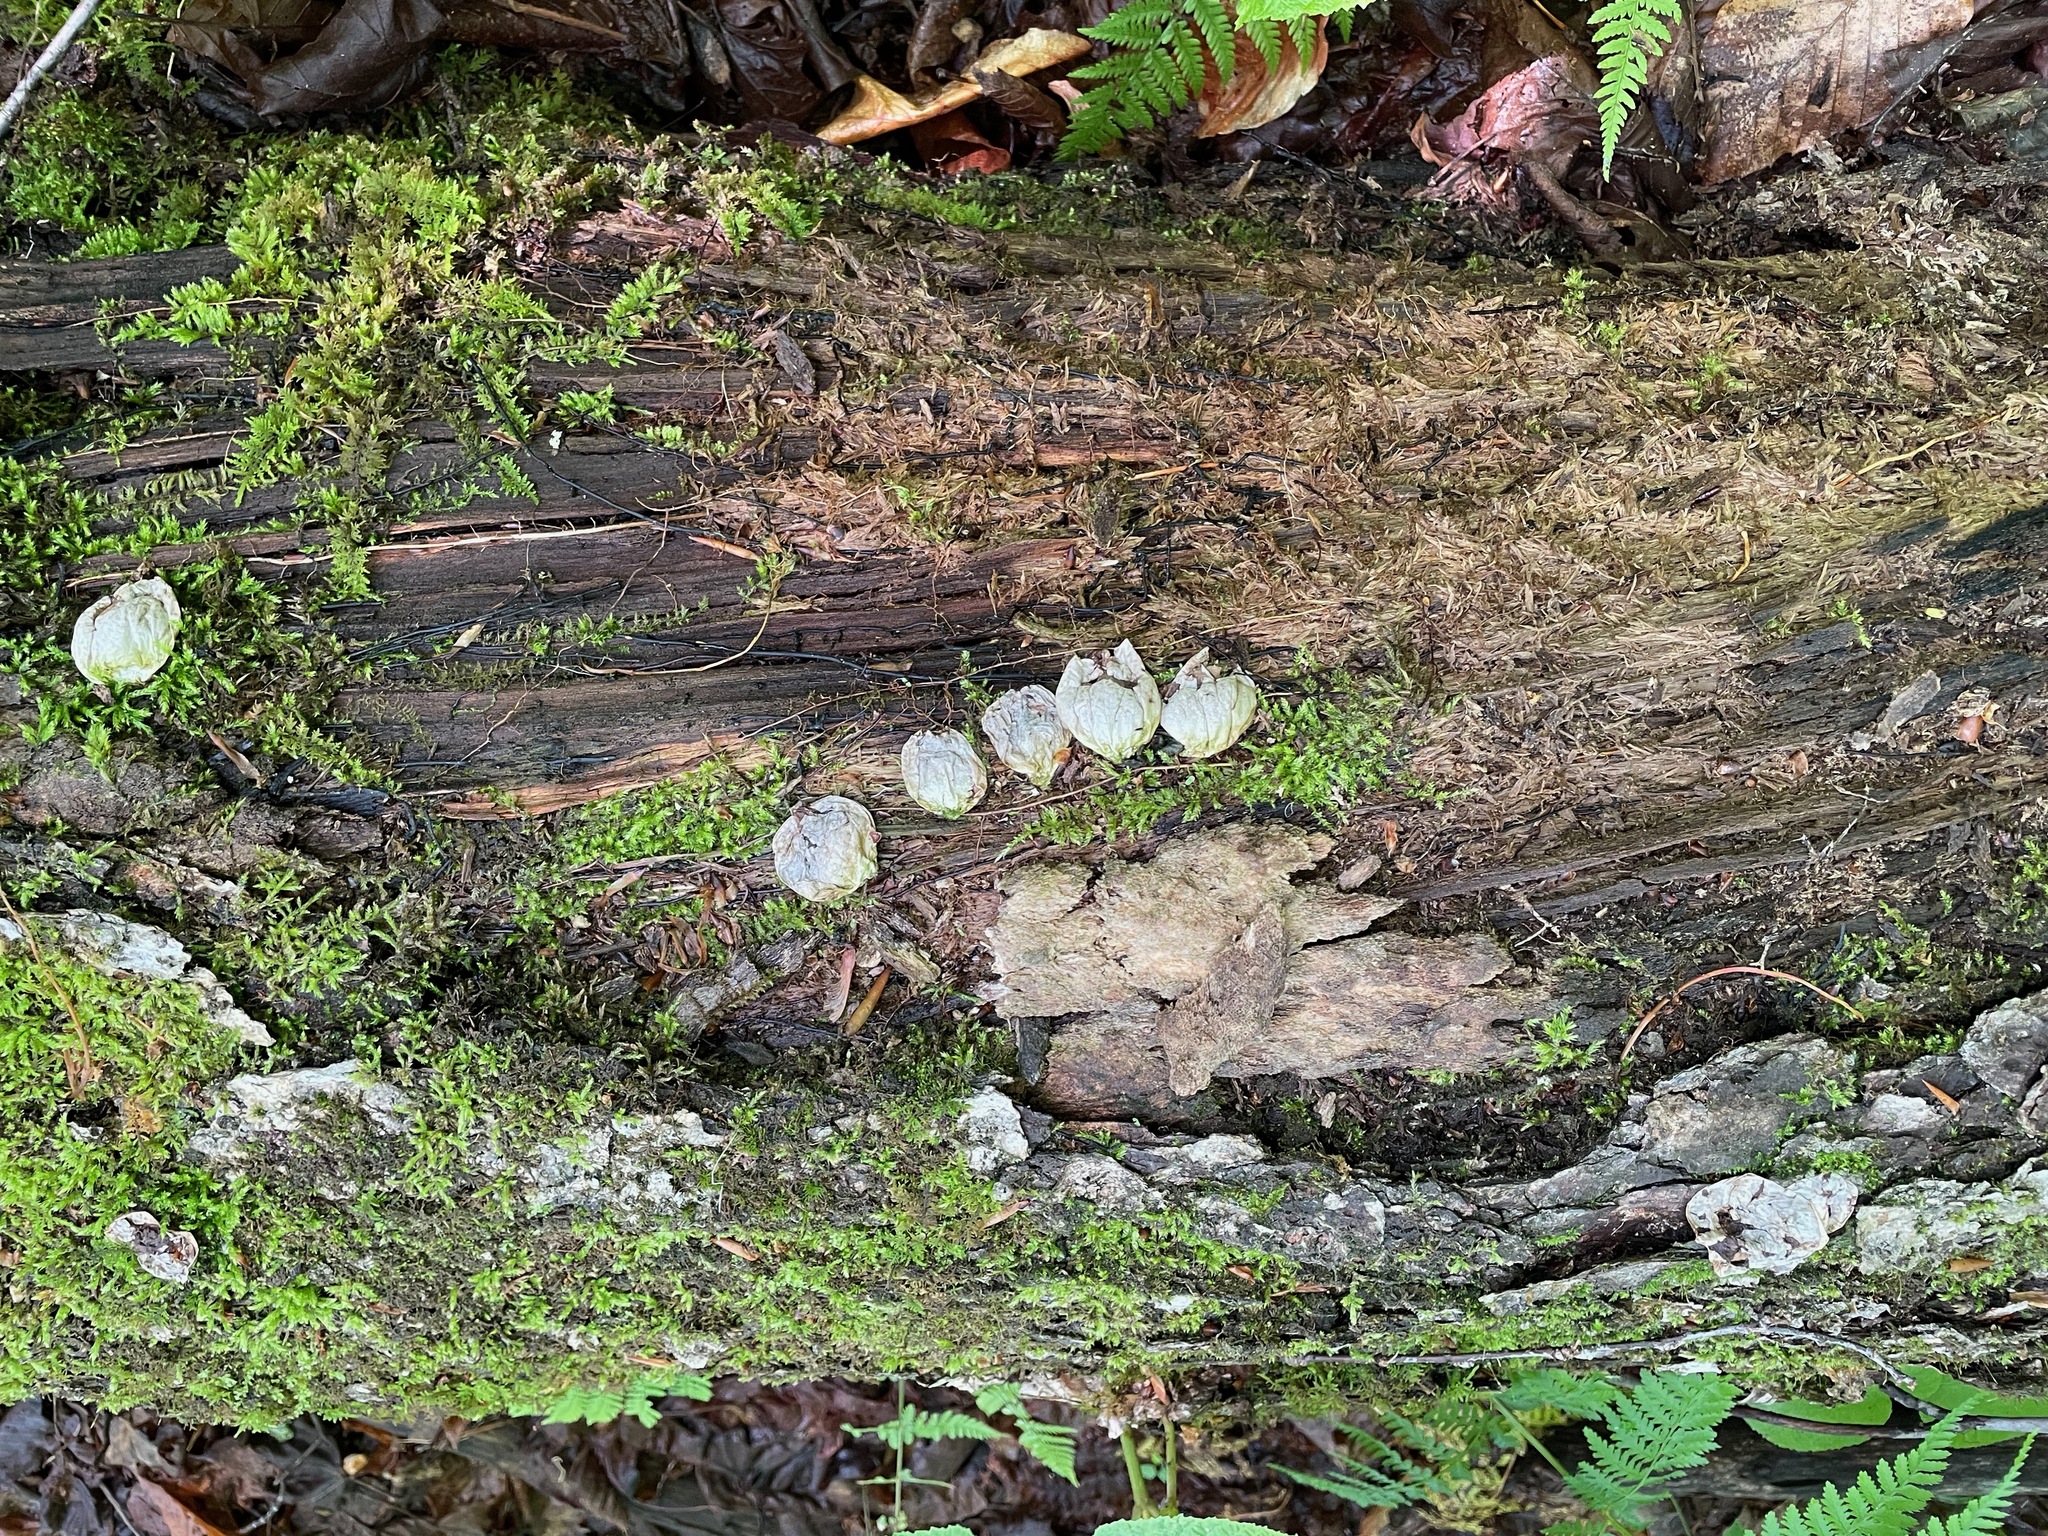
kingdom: Fungi
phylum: Basidiomycota
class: Agaricomycetes
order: Agaricales
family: Lycoperdaceae
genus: Apioperdon
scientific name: Apioperdon pyriforme
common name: Pear-shaped puffball
